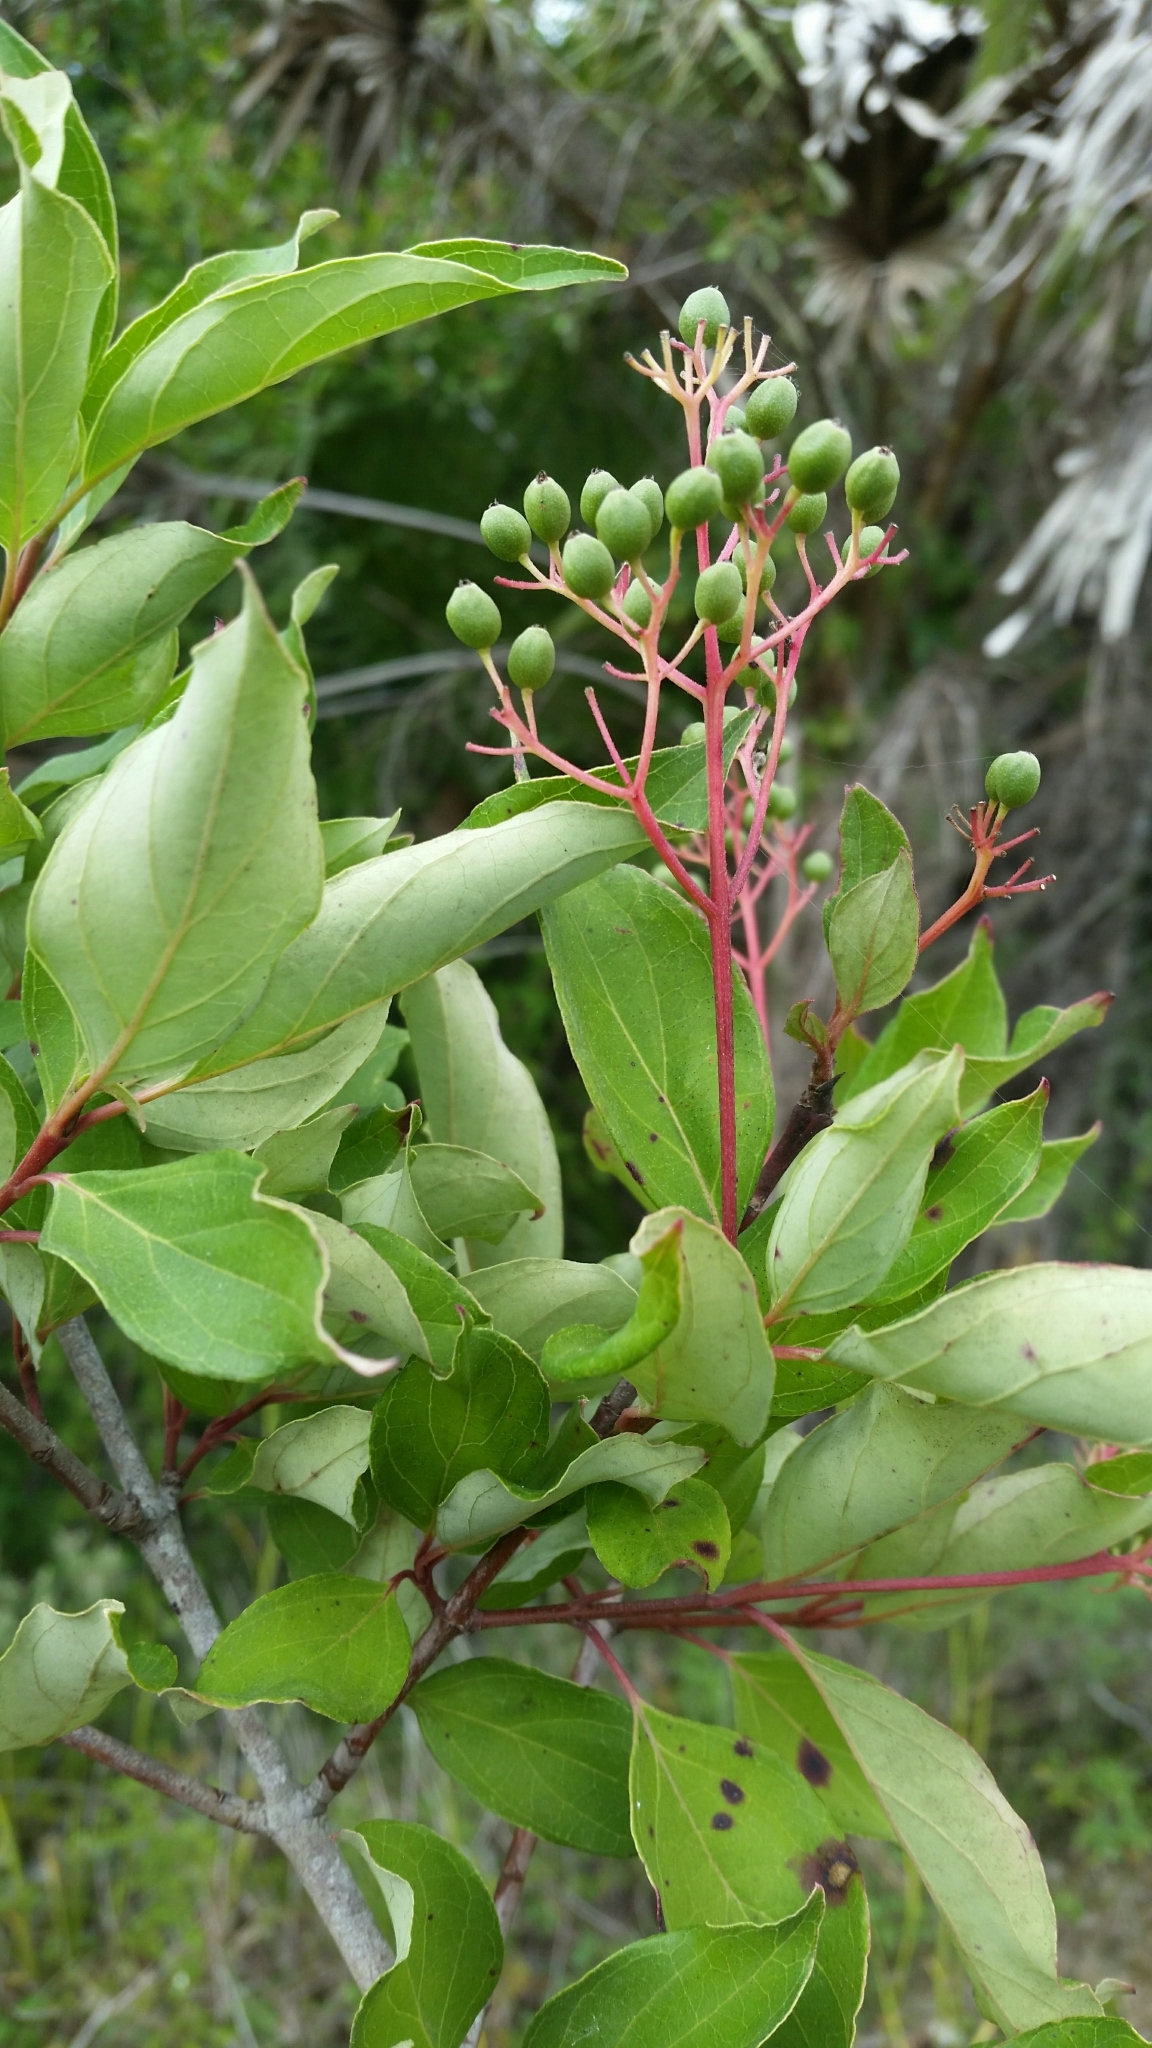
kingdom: Plantae
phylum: Tracheophyta
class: Magnoliopsida
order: Cornales
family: Cornaceae
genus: Cornus
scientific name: Cornus foemina
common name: Swamp dogwood
